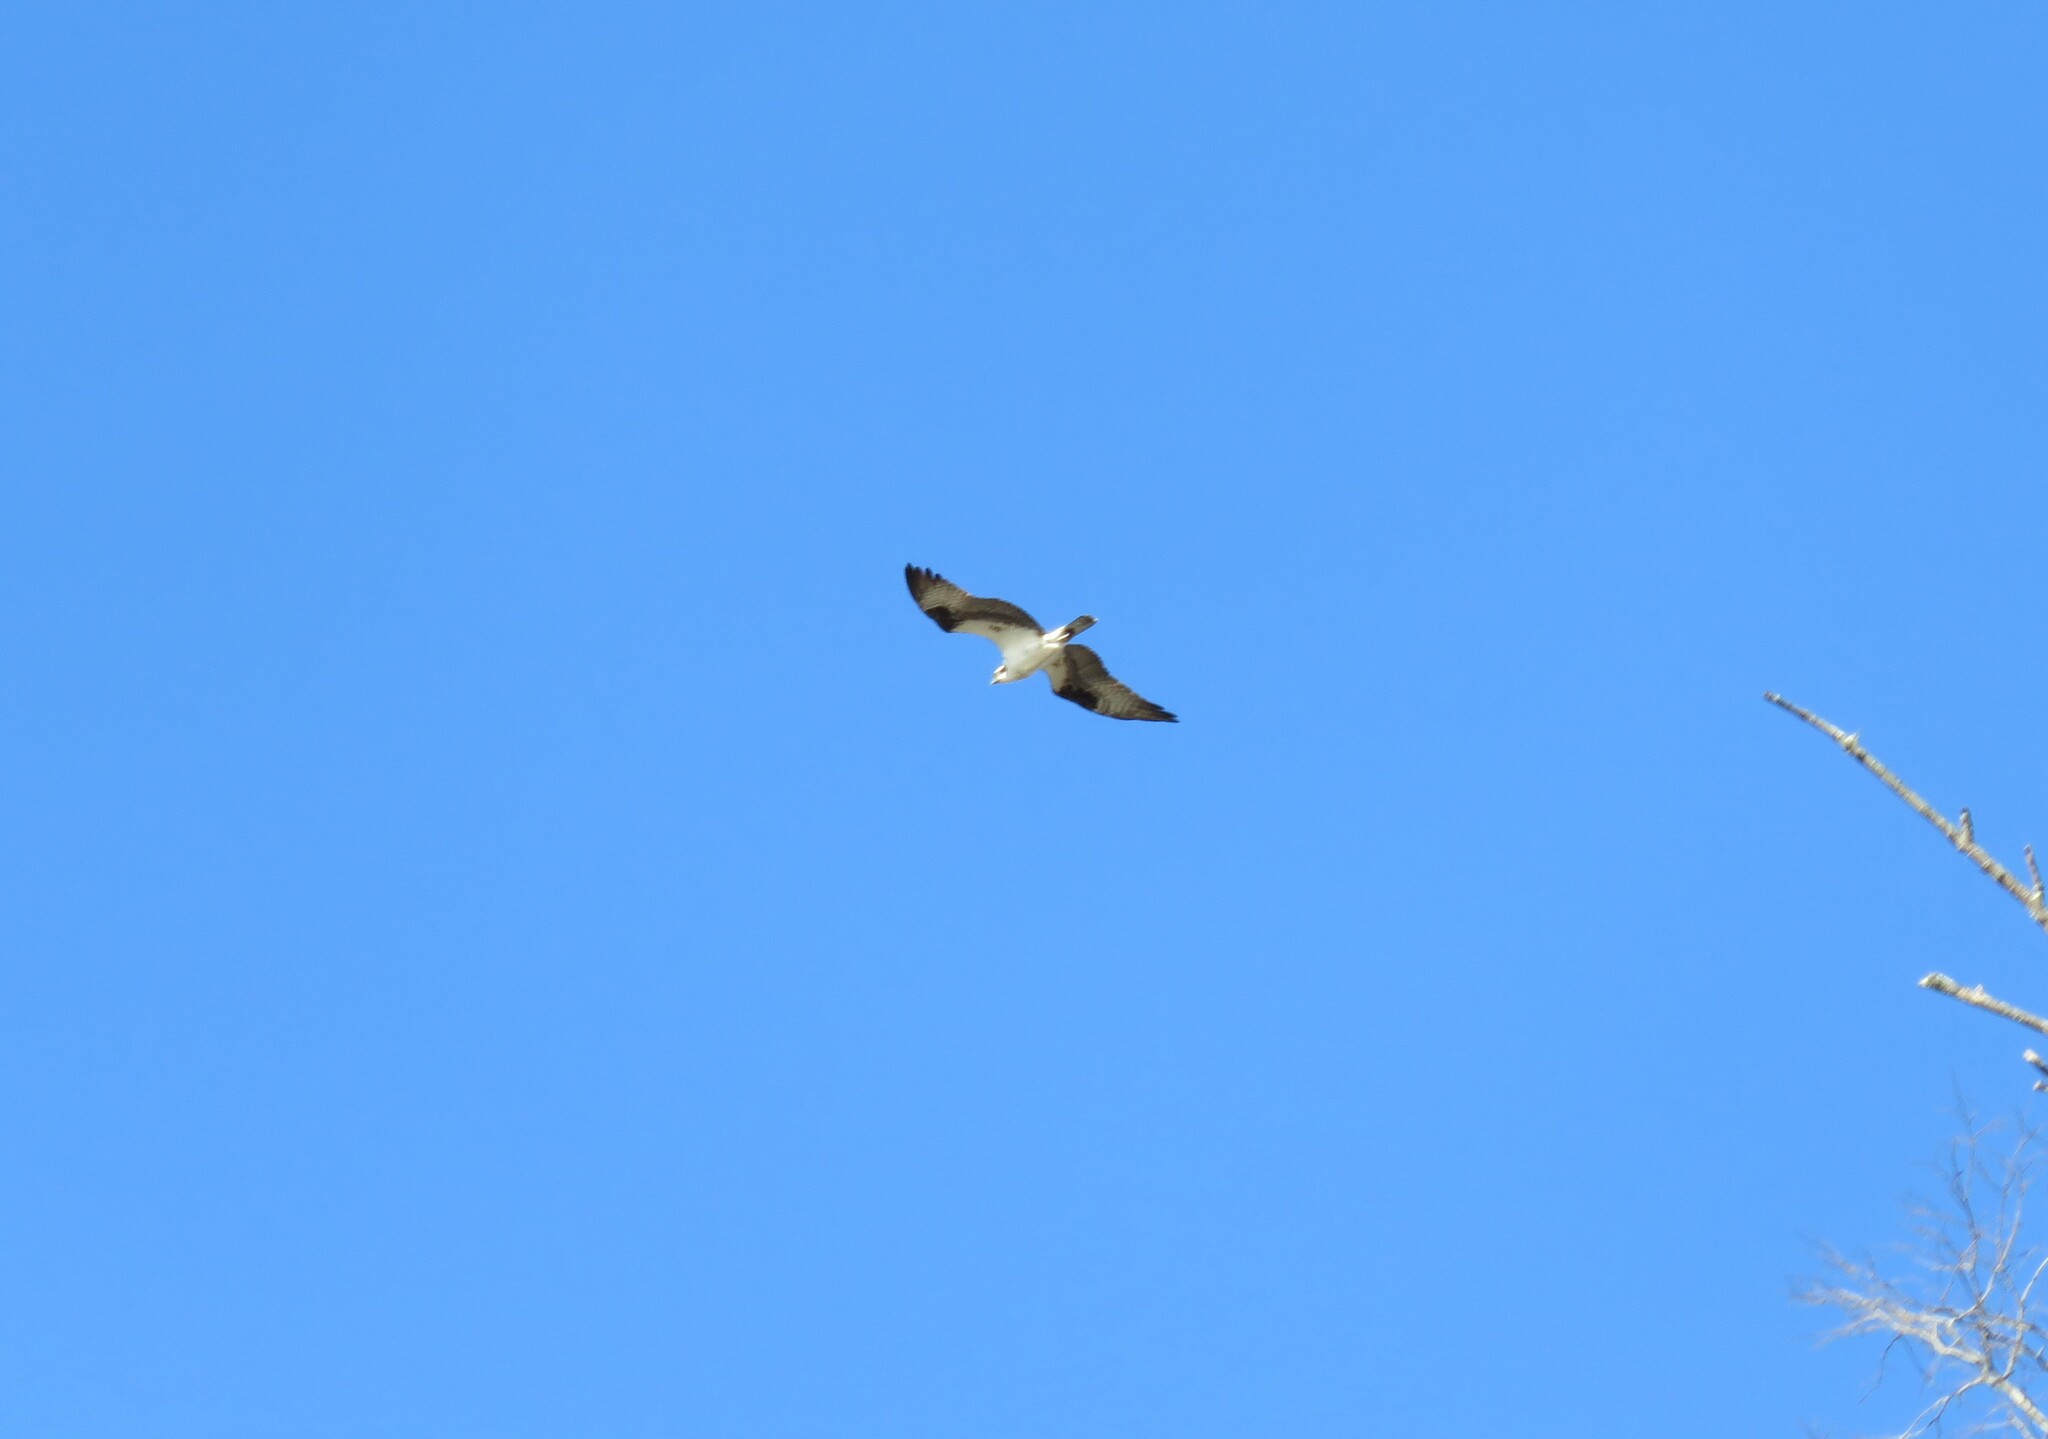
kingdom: Animalia
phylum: Chordata
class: Aves
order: Accipitriformes
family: Pandionidae
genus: Pandion
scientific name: Pandion haliaetus
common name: Osprey
